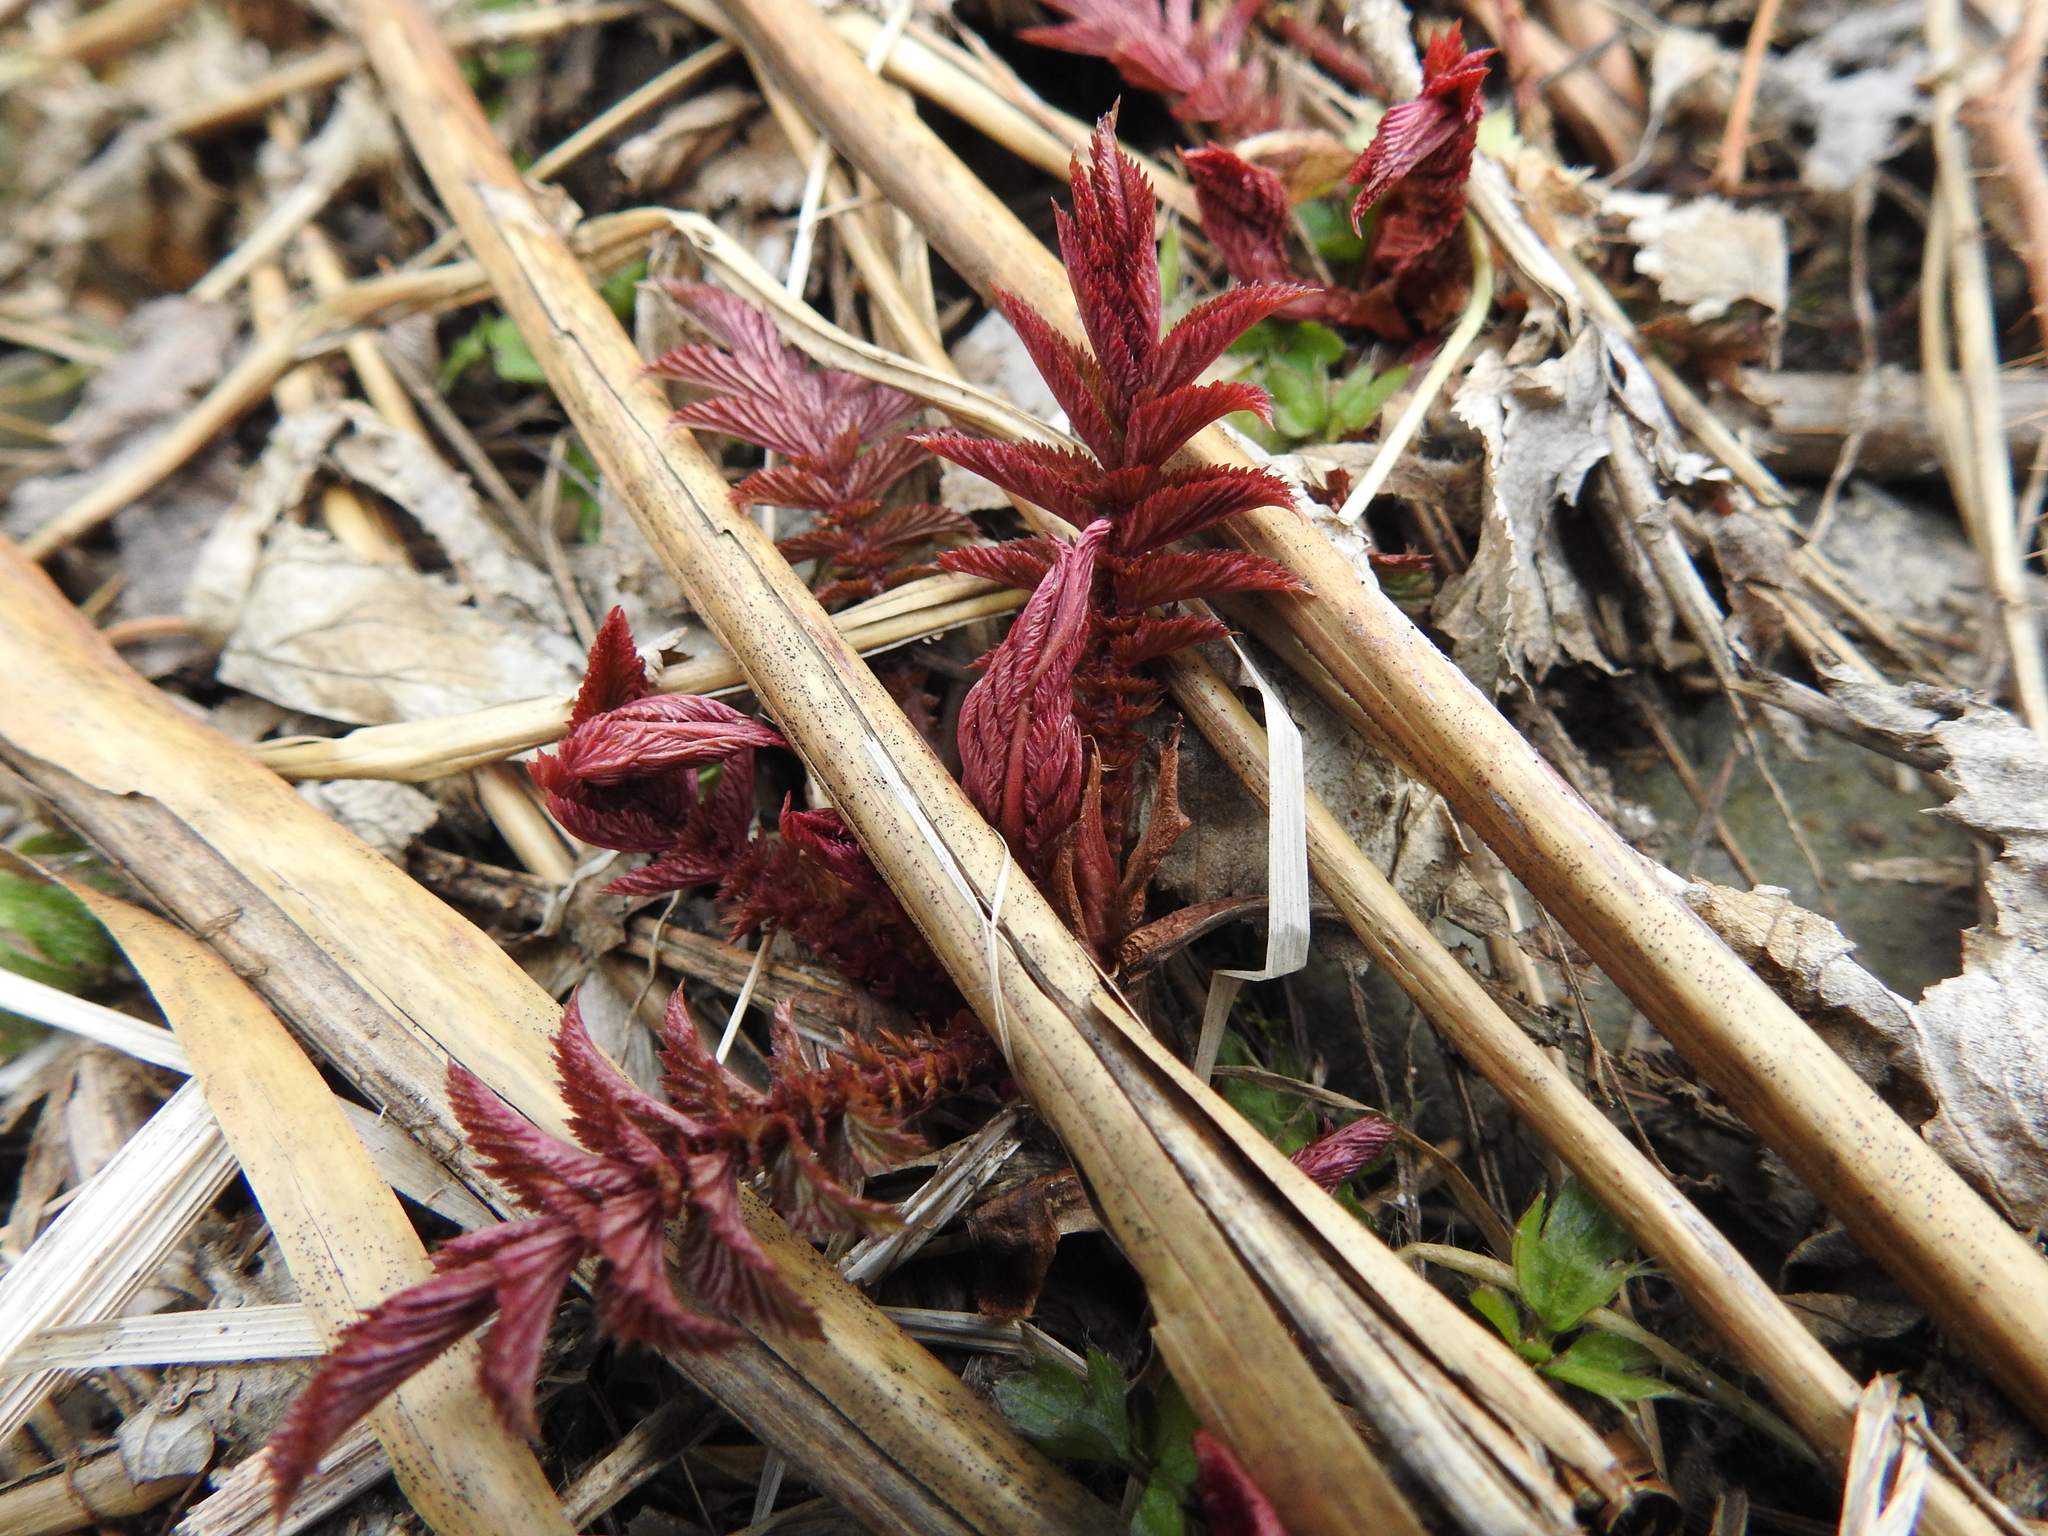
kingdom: Plantae
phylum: Tracheophyta
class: Magnoliopsida
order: Rosales
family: Rosaceae
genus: Filipendula
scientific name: Filipendula ulmaria
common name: Meadowsweet
